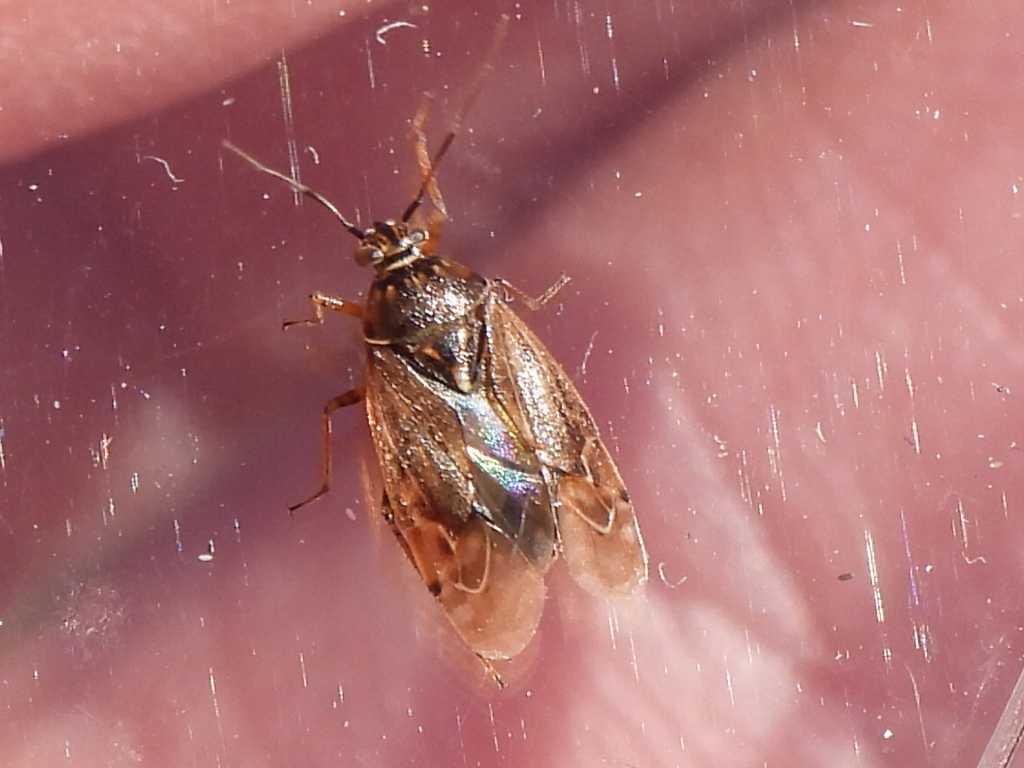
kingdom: Animalia
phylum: Arthropoda
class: Insecta
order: Hemiptera
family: Miridae
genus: Lygus
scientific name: Lygus lineolaris
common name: North american tarnished plant bug
